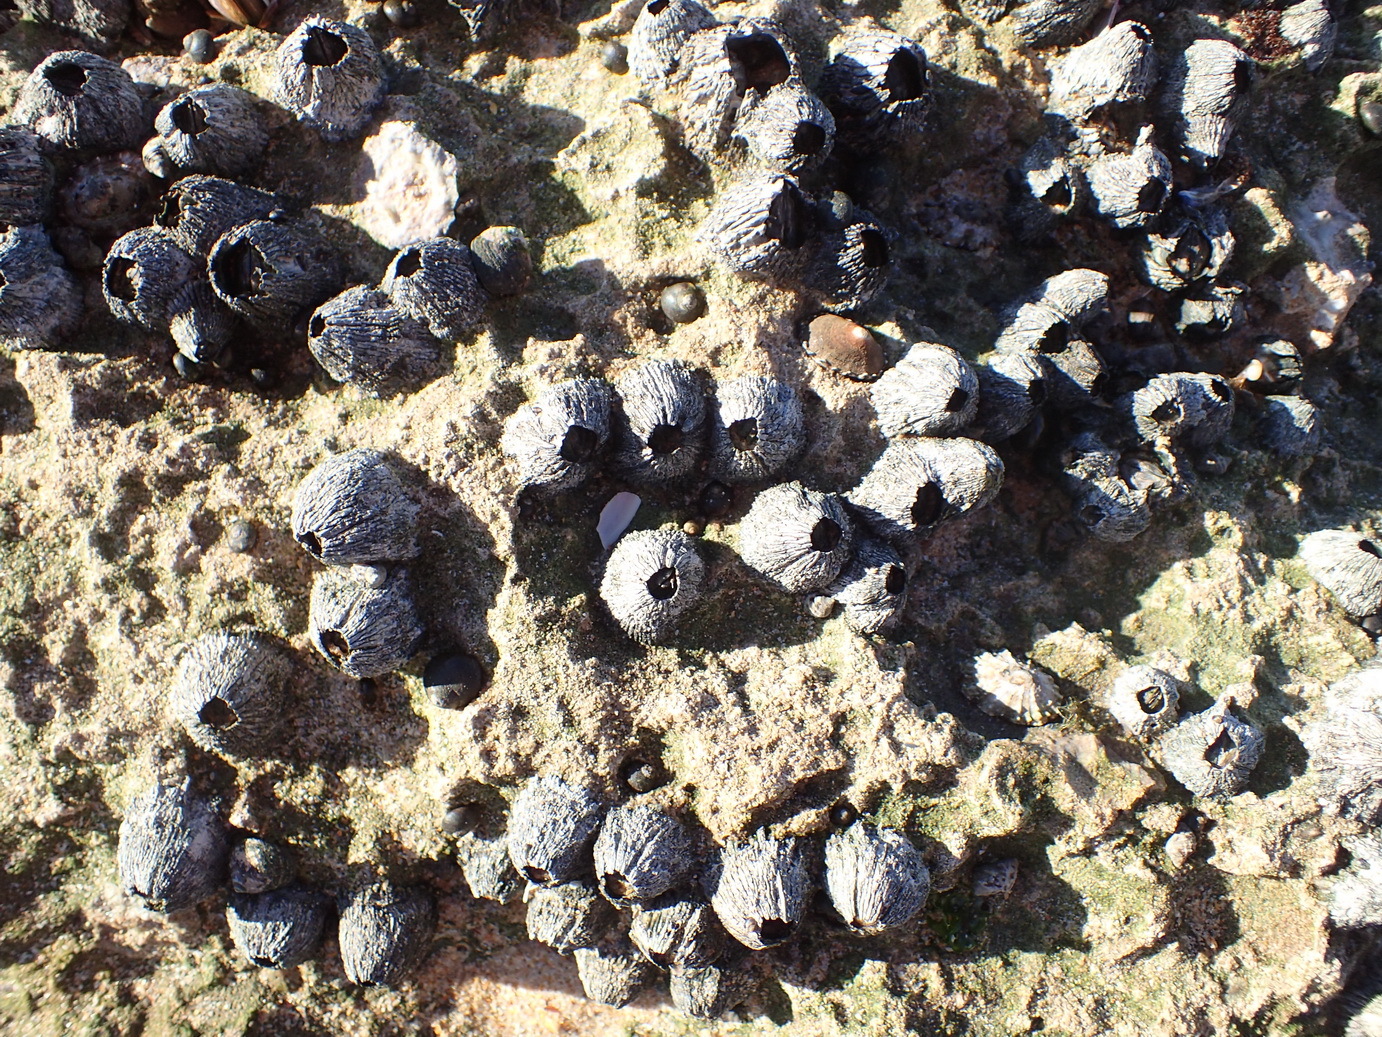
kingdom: Animalia
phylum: Arthropoda
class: Maxillopoda
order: Sessilia
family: Tetraclitidae
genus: Tetraclita
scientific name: Tetraclita serrata
